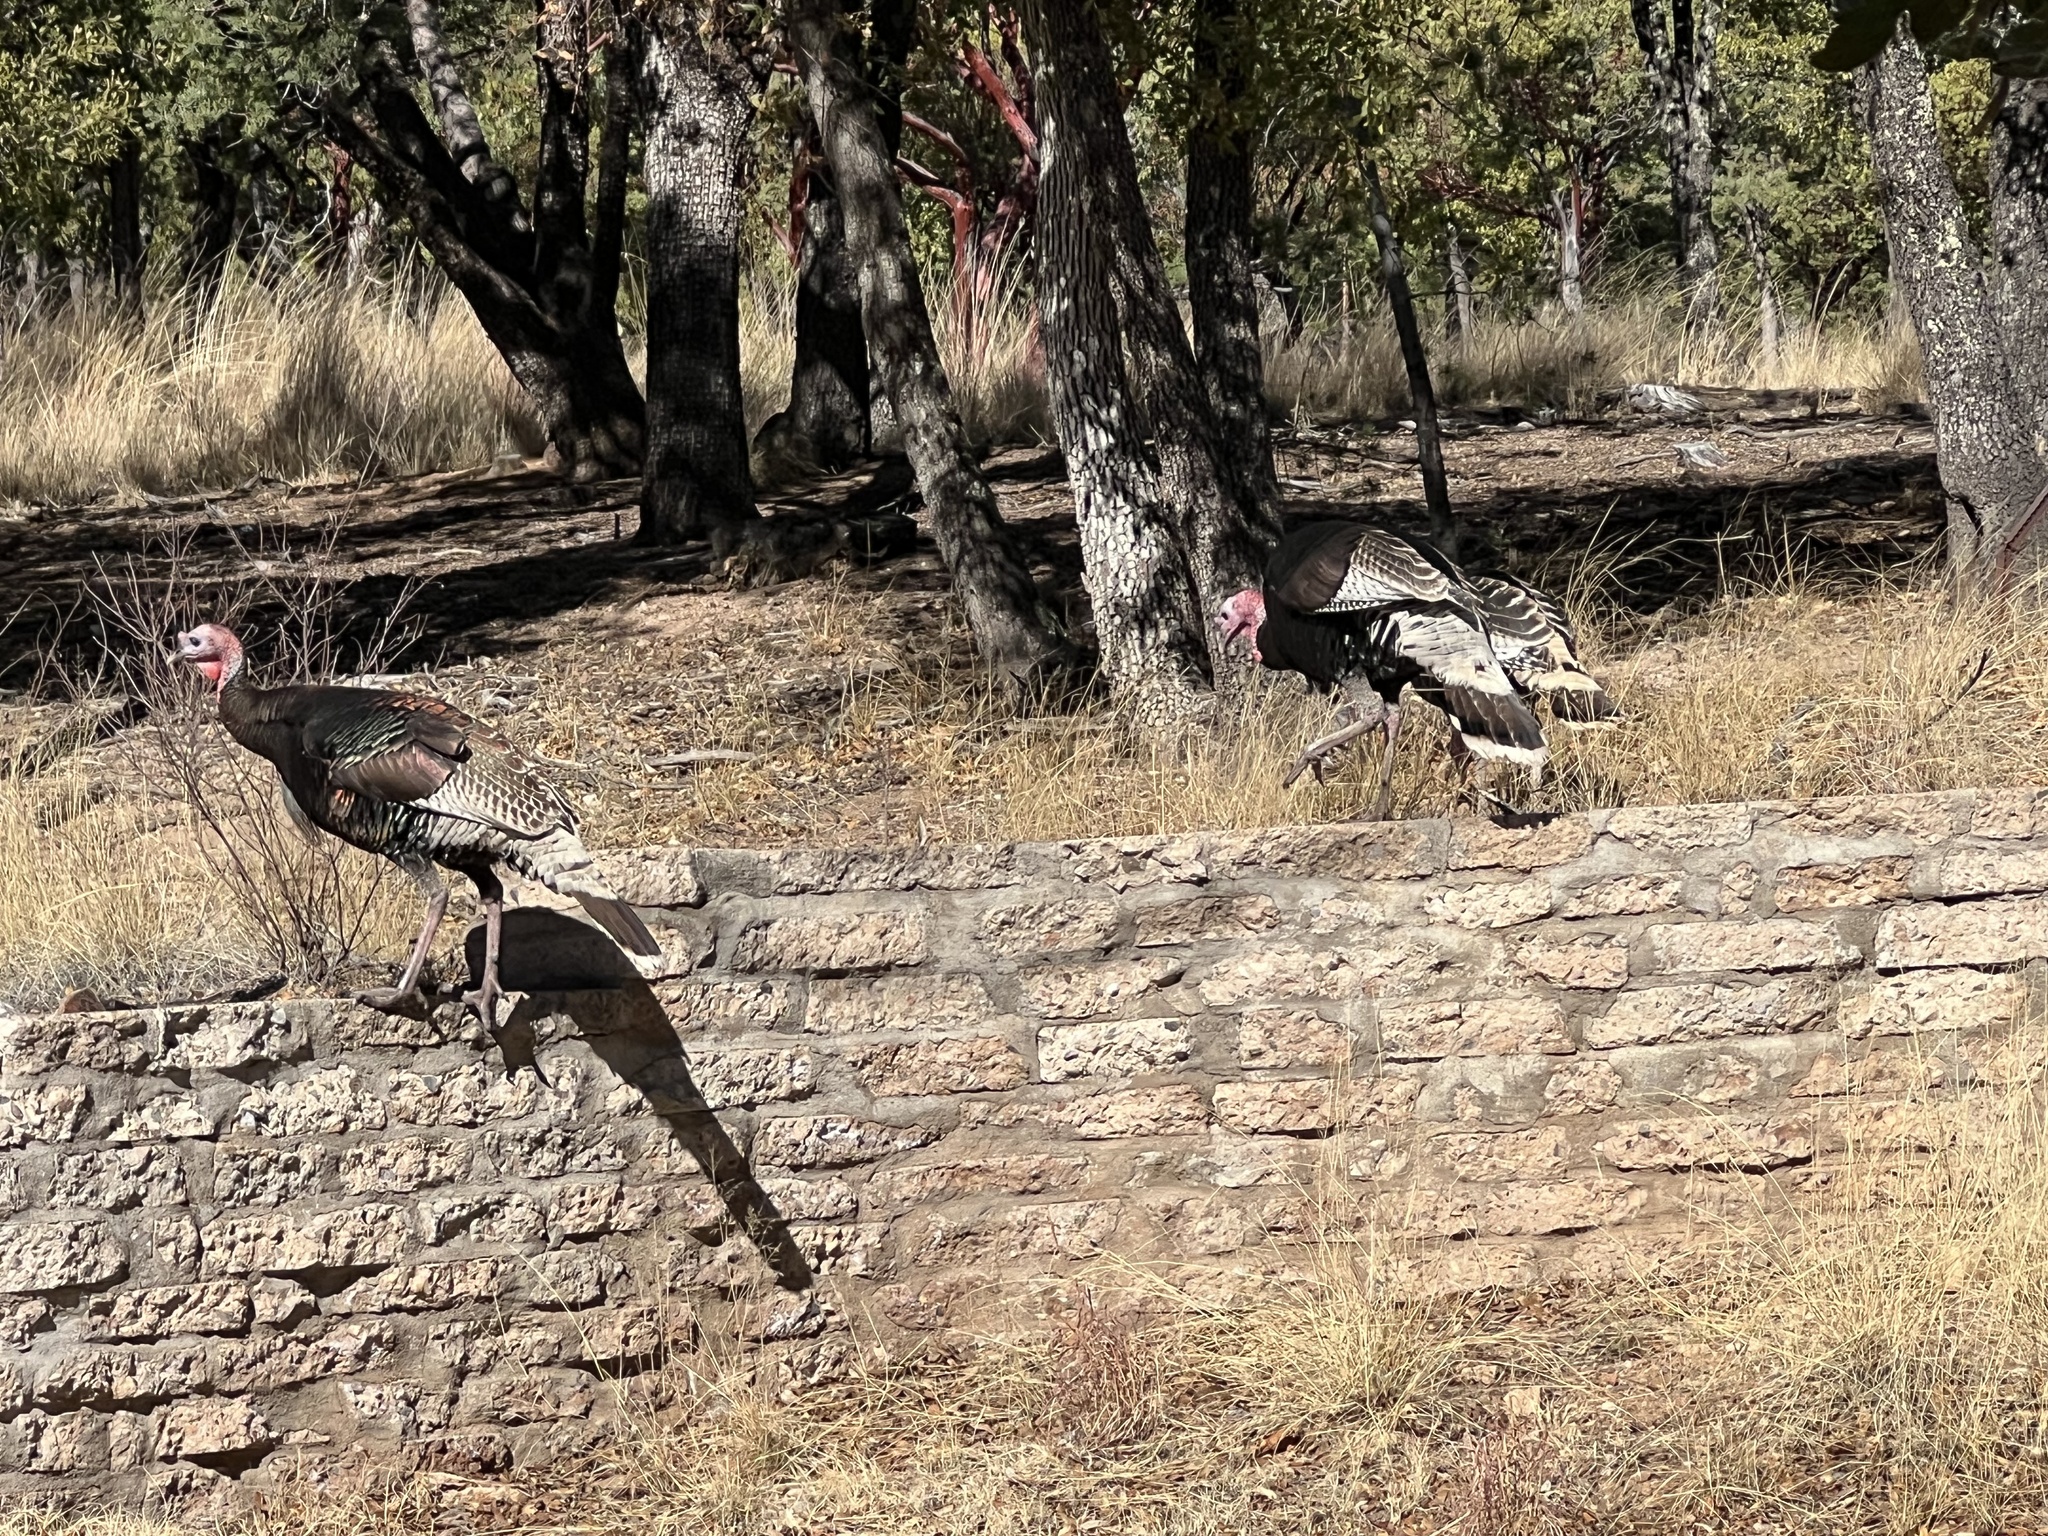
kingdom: Animalia
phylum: Chordata
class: Aves
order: Galliformes
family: Phasianidae
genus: Meleagris
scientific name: Meleagris gallopavo
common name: Wild turkey
